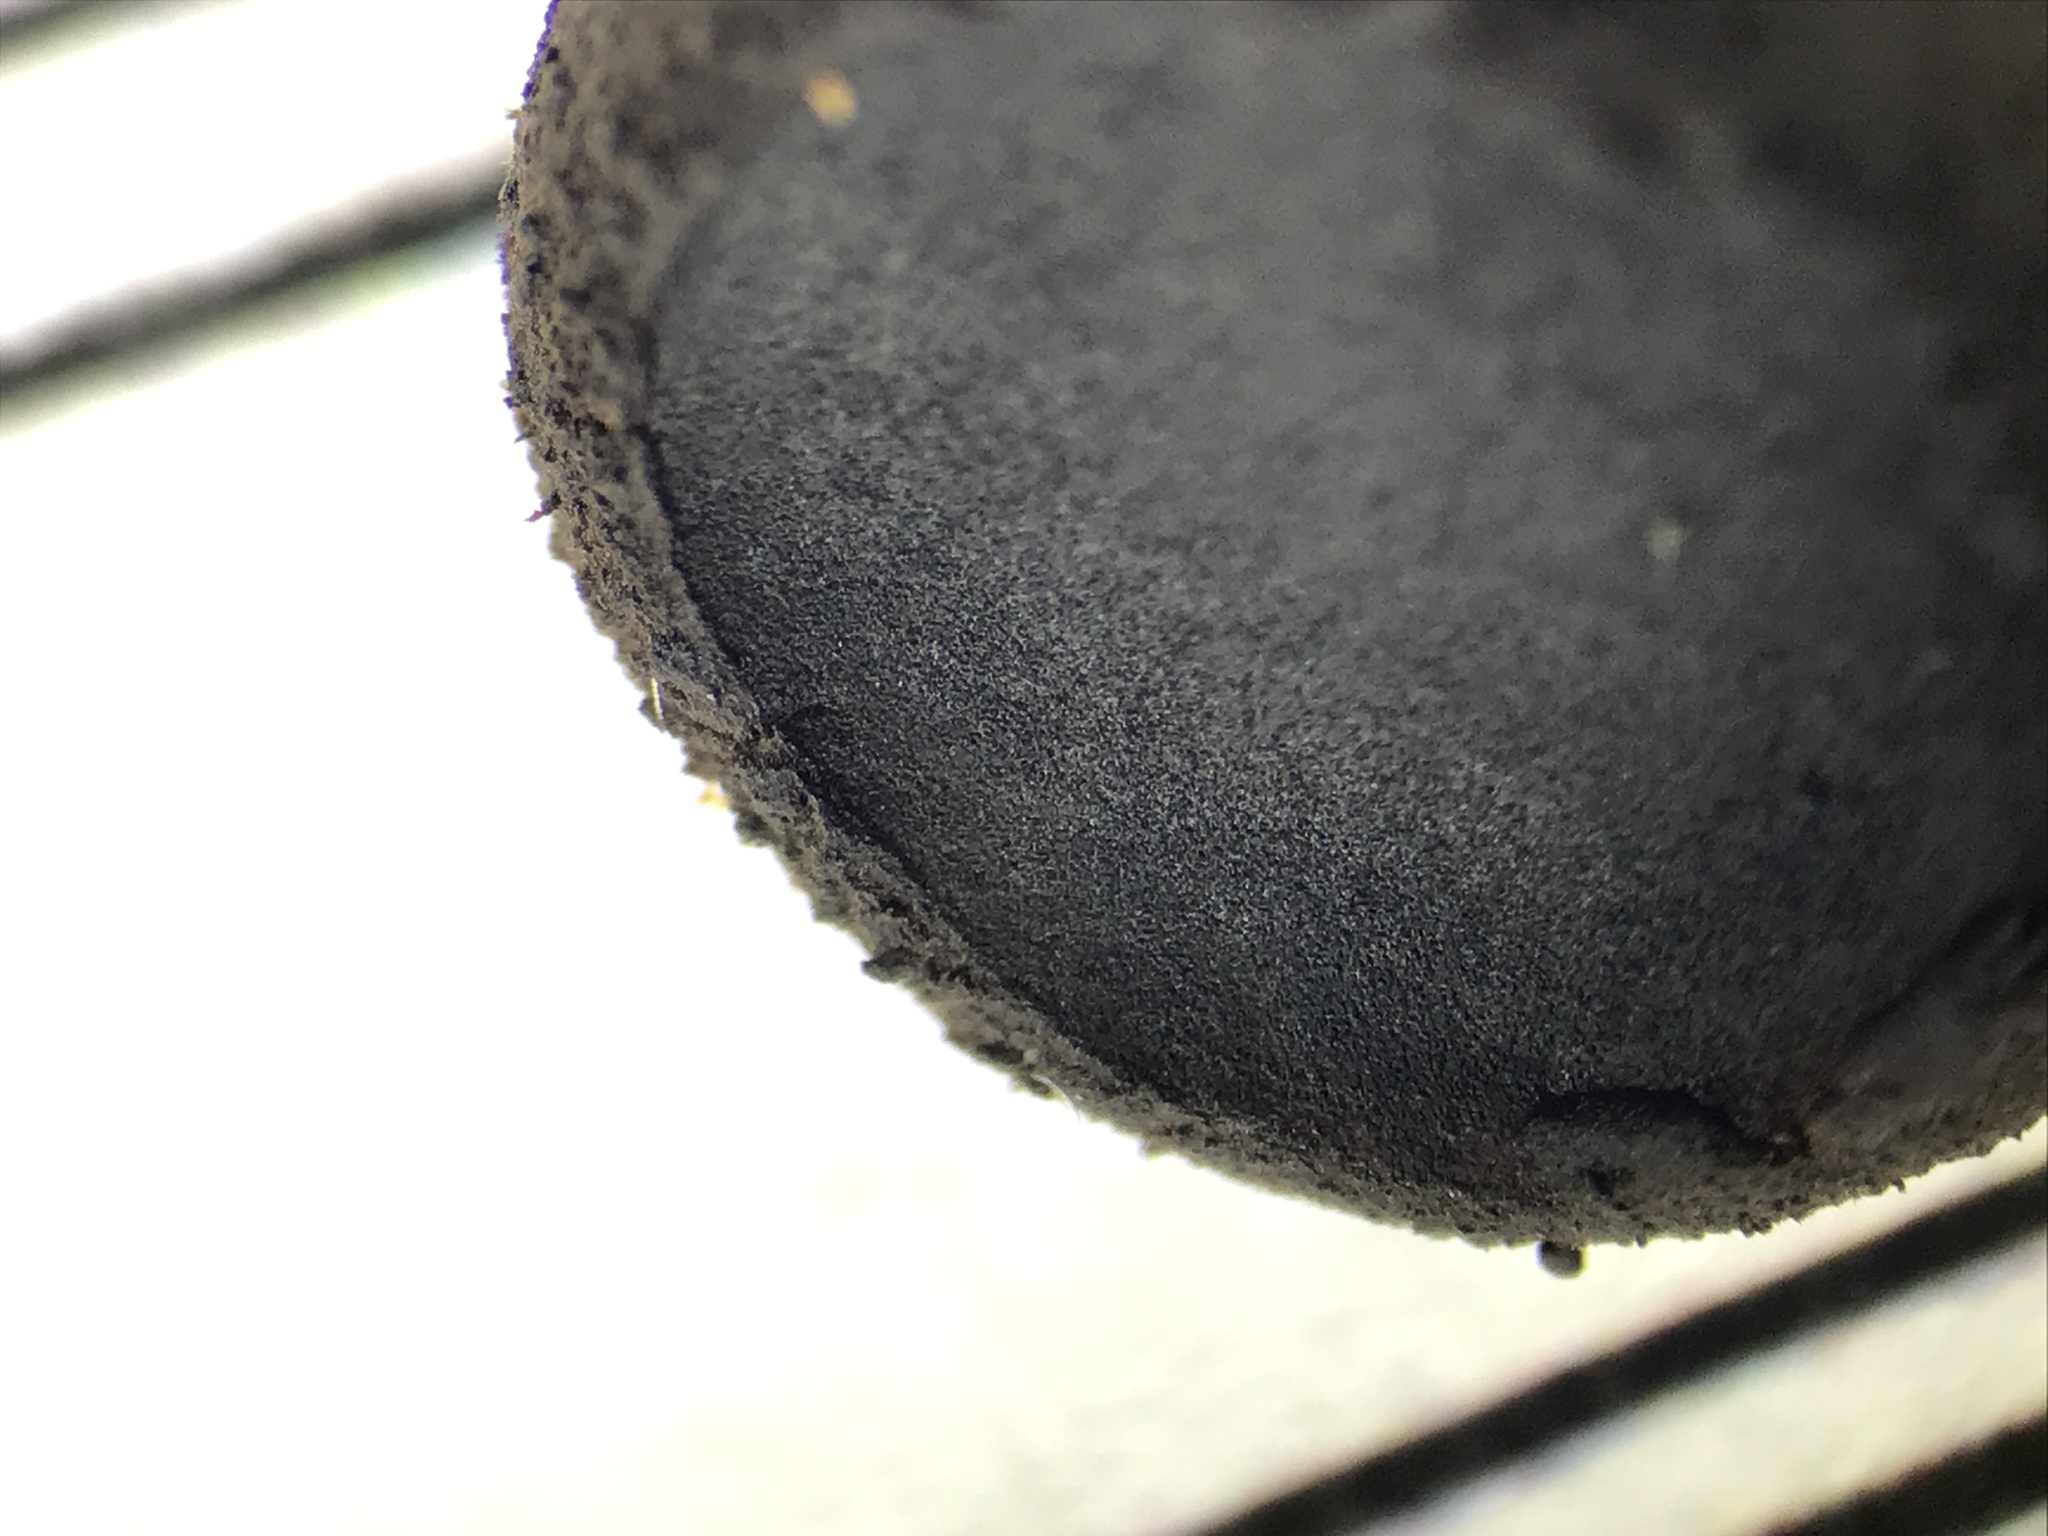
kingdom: Fungi
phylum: Ascomycota
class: Leotiomycetes
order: Phacidiales
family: Phacidiaceae
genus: Bulgaria
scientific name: Bulgaria inquinans
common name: Black bulgar
